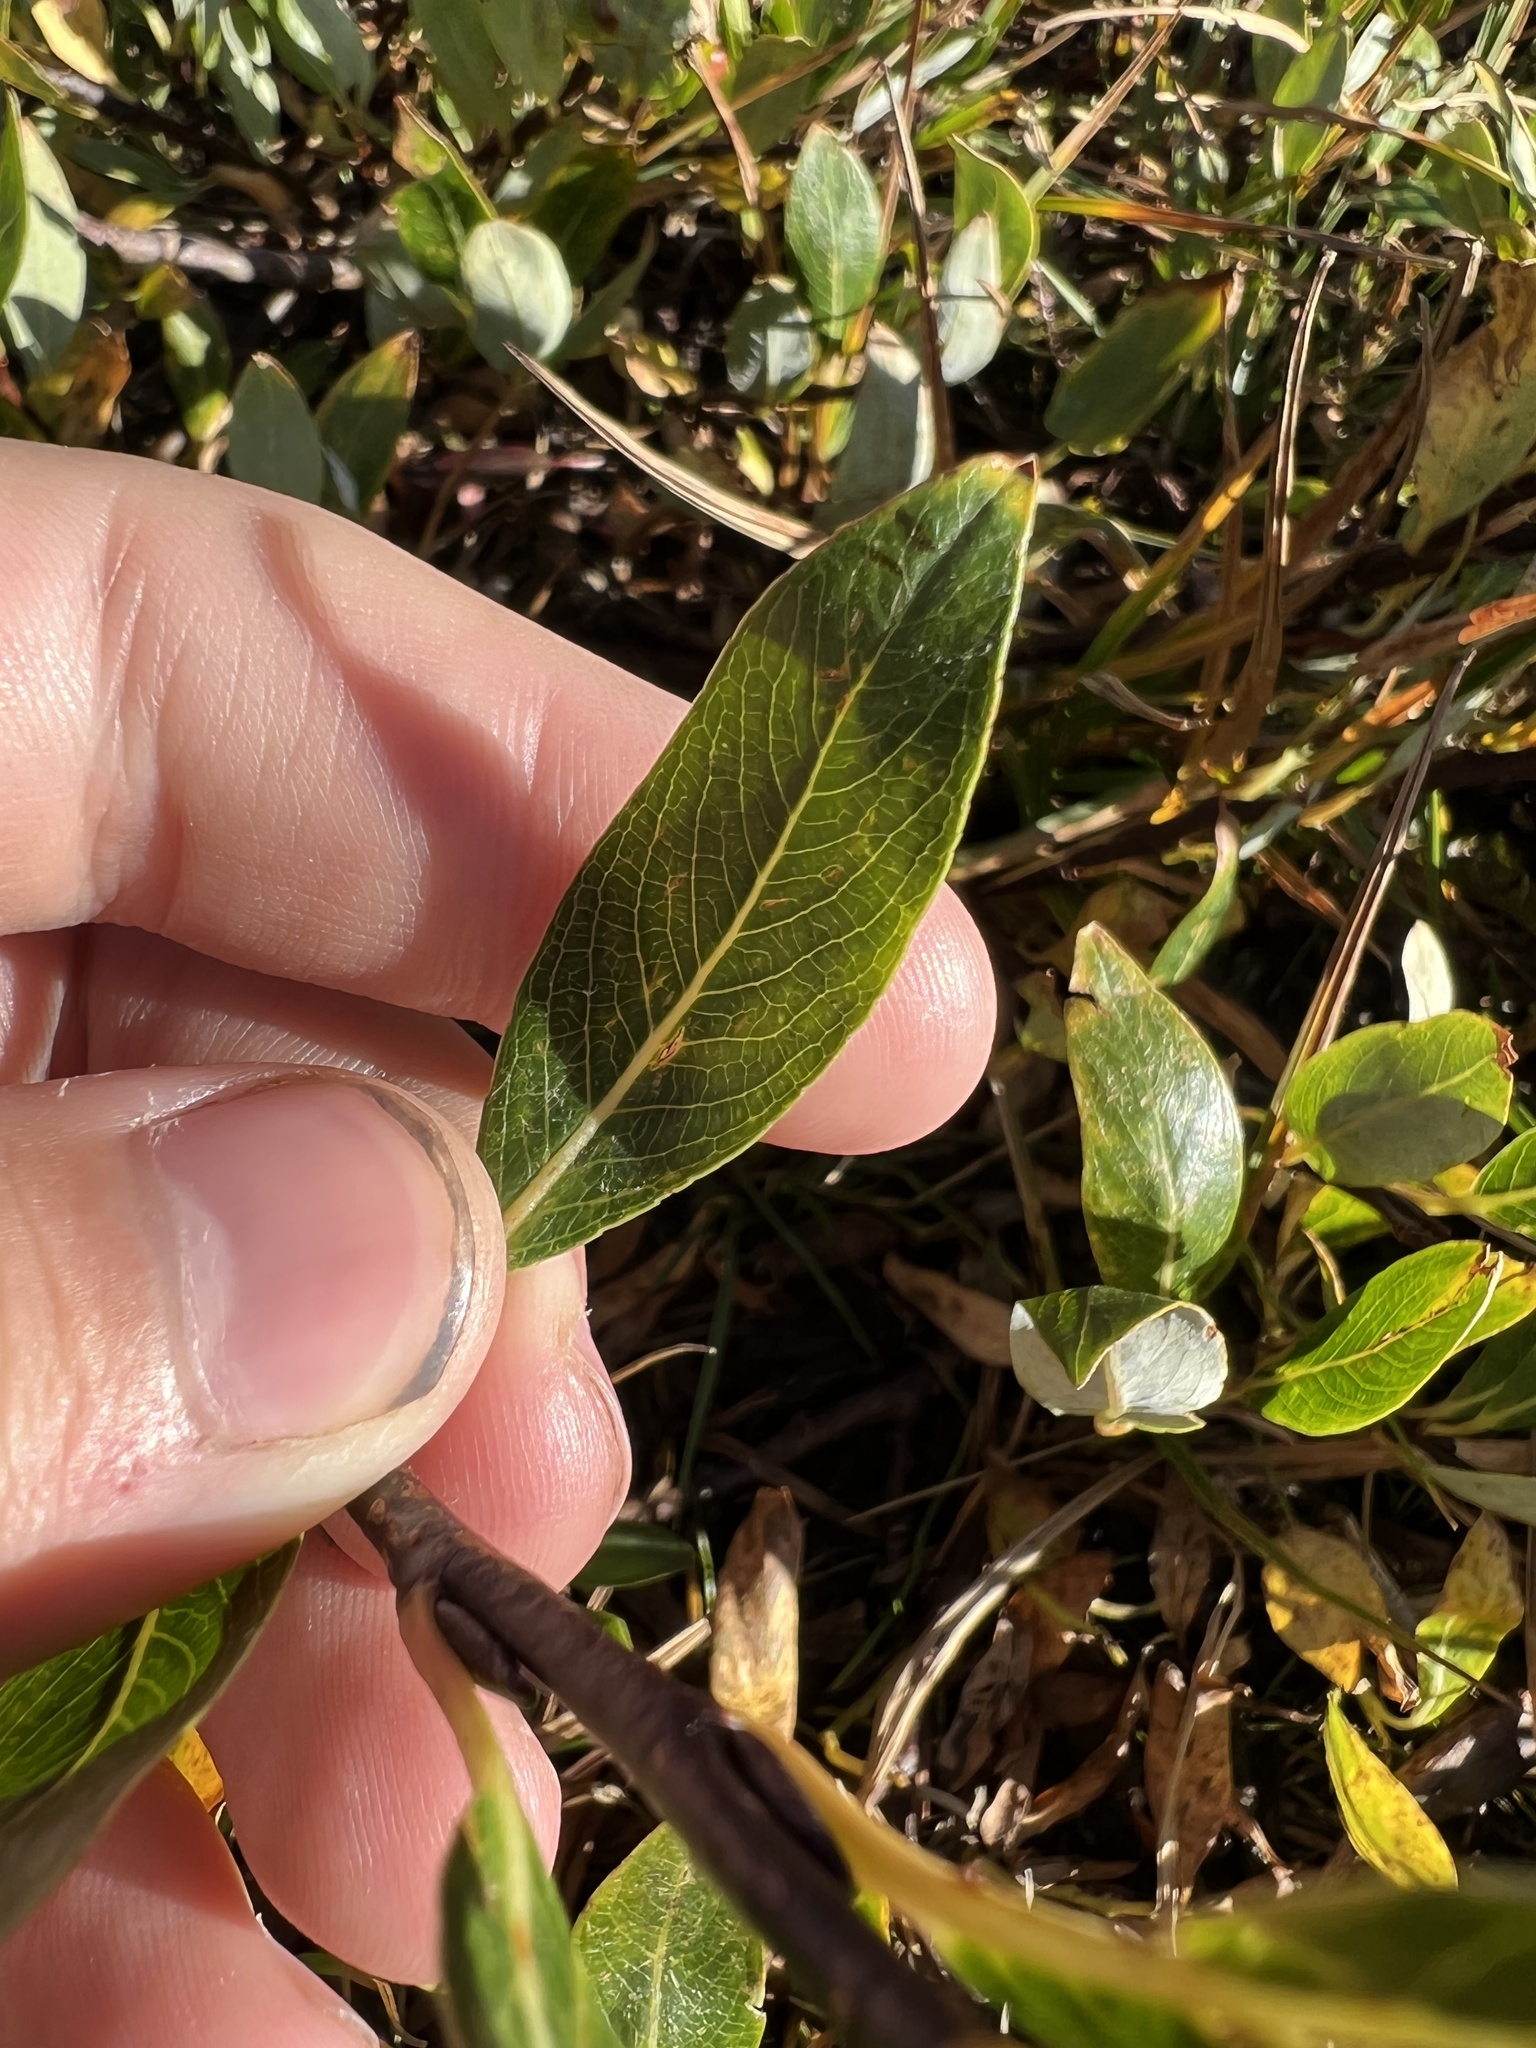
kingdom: Plantae
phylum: Tracheophyta
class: Magnoliopsida
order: Malpighiales
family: Salicaceae
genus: Salix
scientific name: Salix planifolia
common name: Mountain willow
